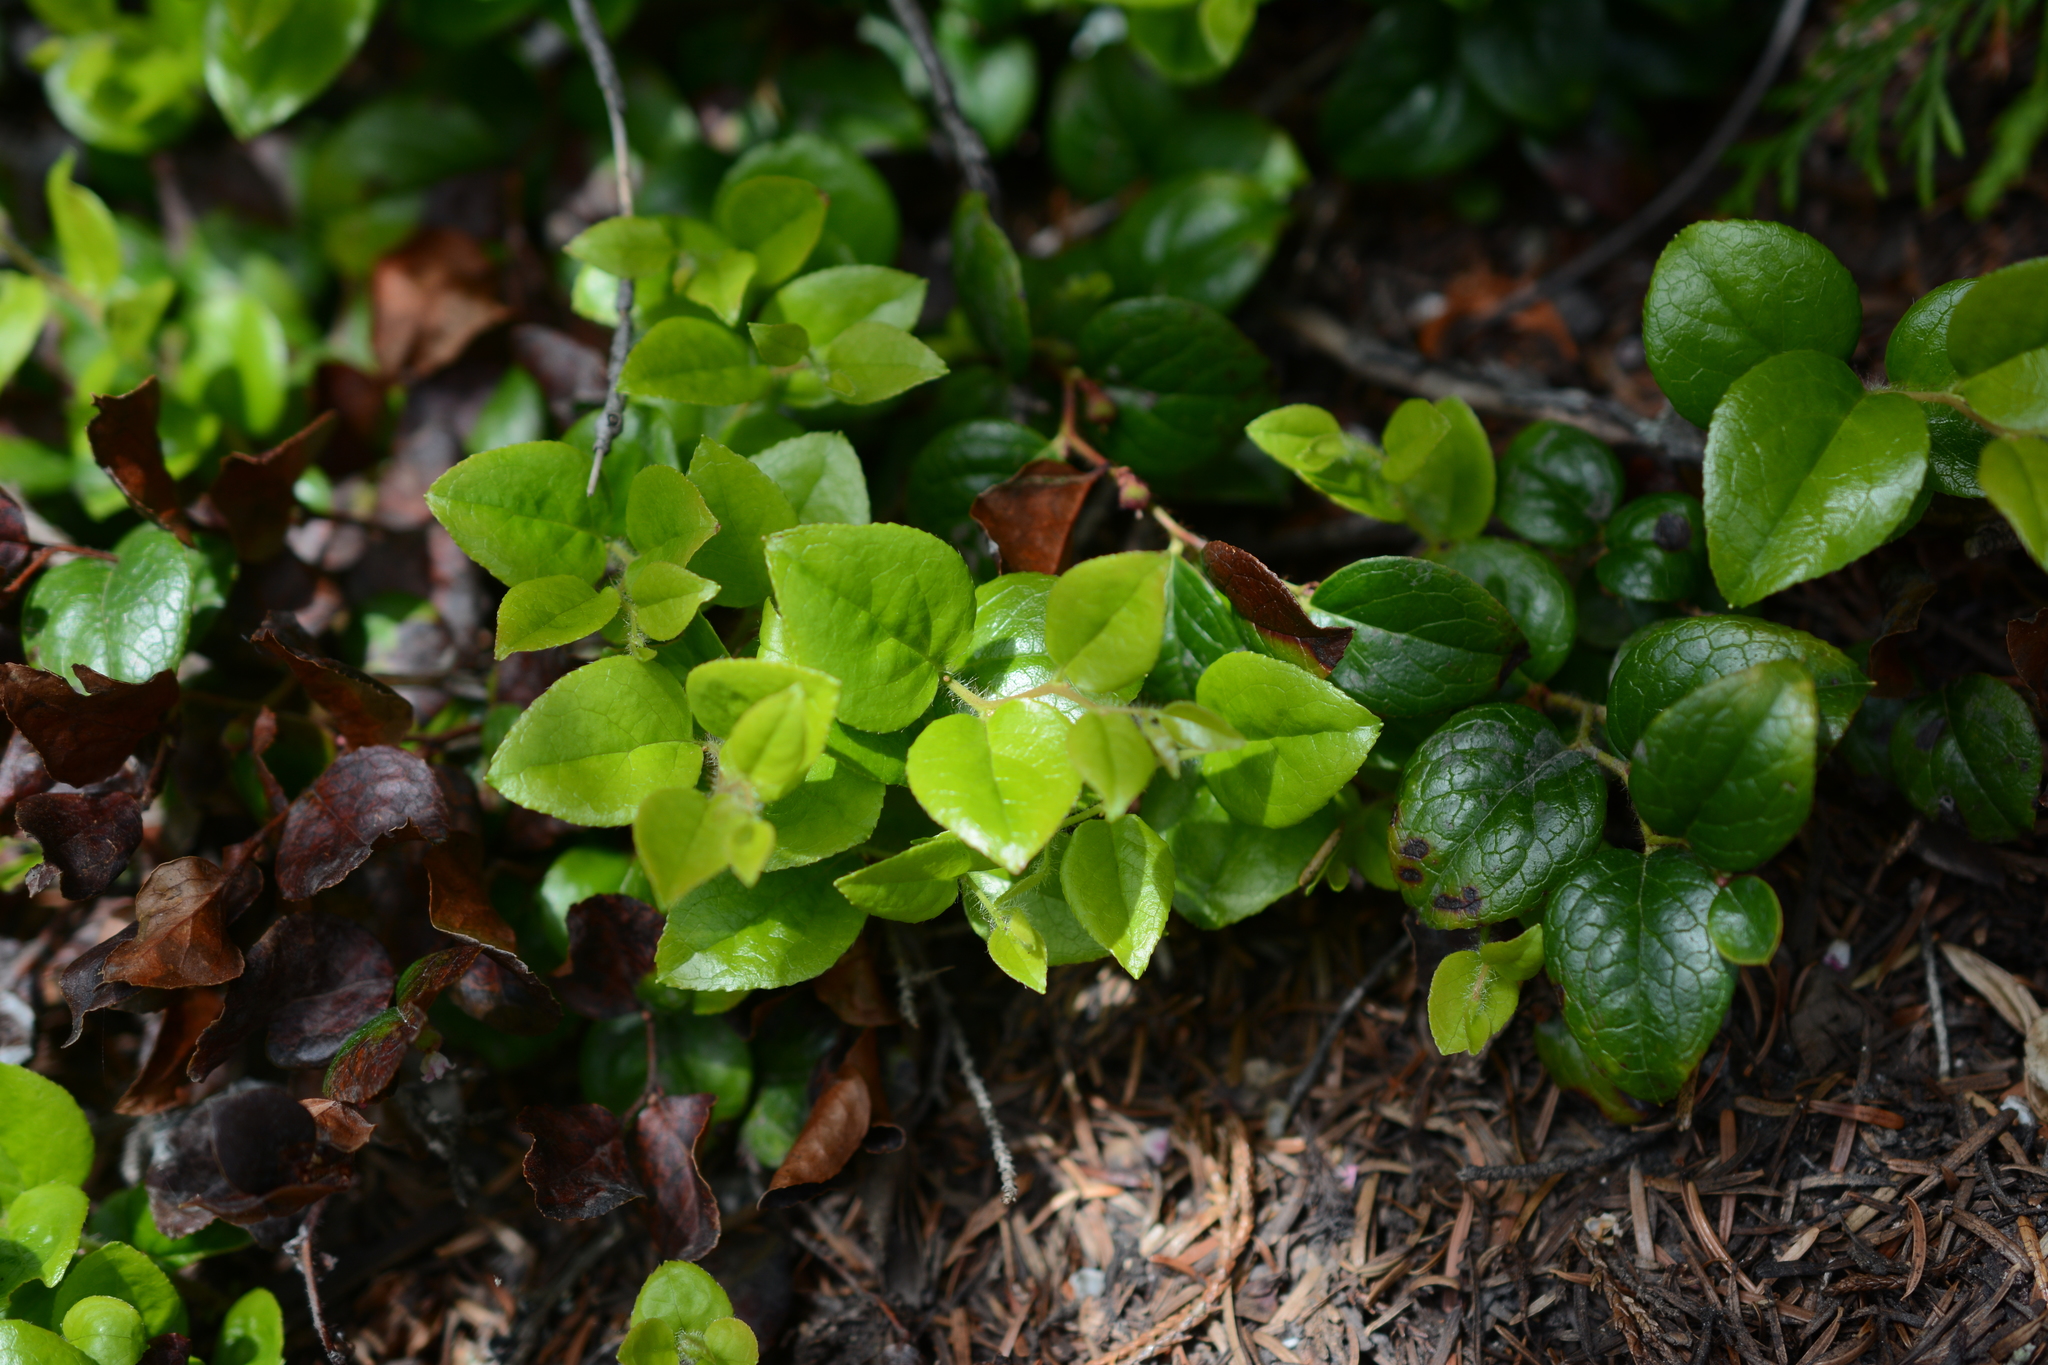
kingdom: Plantae
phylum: Tracheophyta
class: Magnoliopsida
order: Ericales
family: Ericaceae
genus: Gaultheria
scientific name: Gaultheria ovatifolia
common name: Oregon wintergreen
